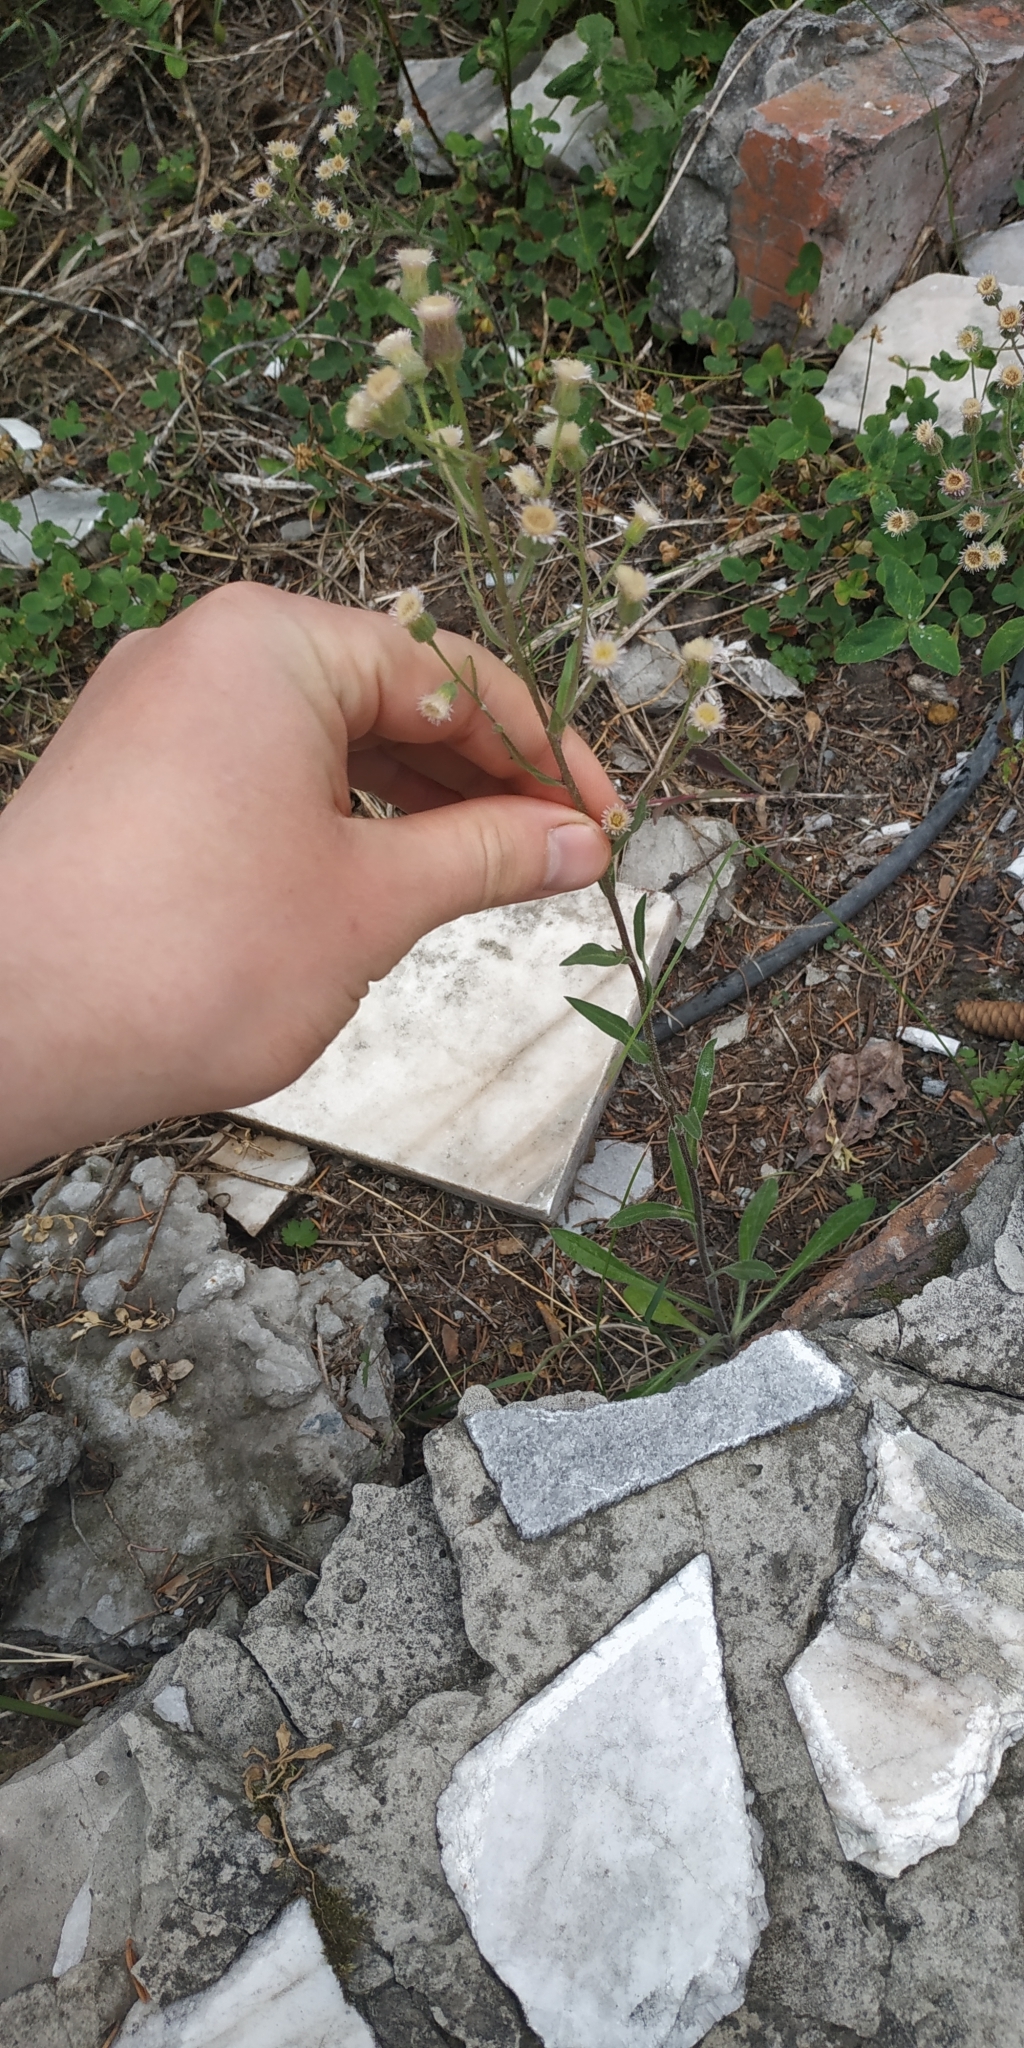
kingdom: Plantae
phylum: Tracheophyta
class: Magnoliopsida
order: Asterales
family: Asteraceae
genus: Erigeron
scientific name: Erigeron acris
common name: Blue fleabane
